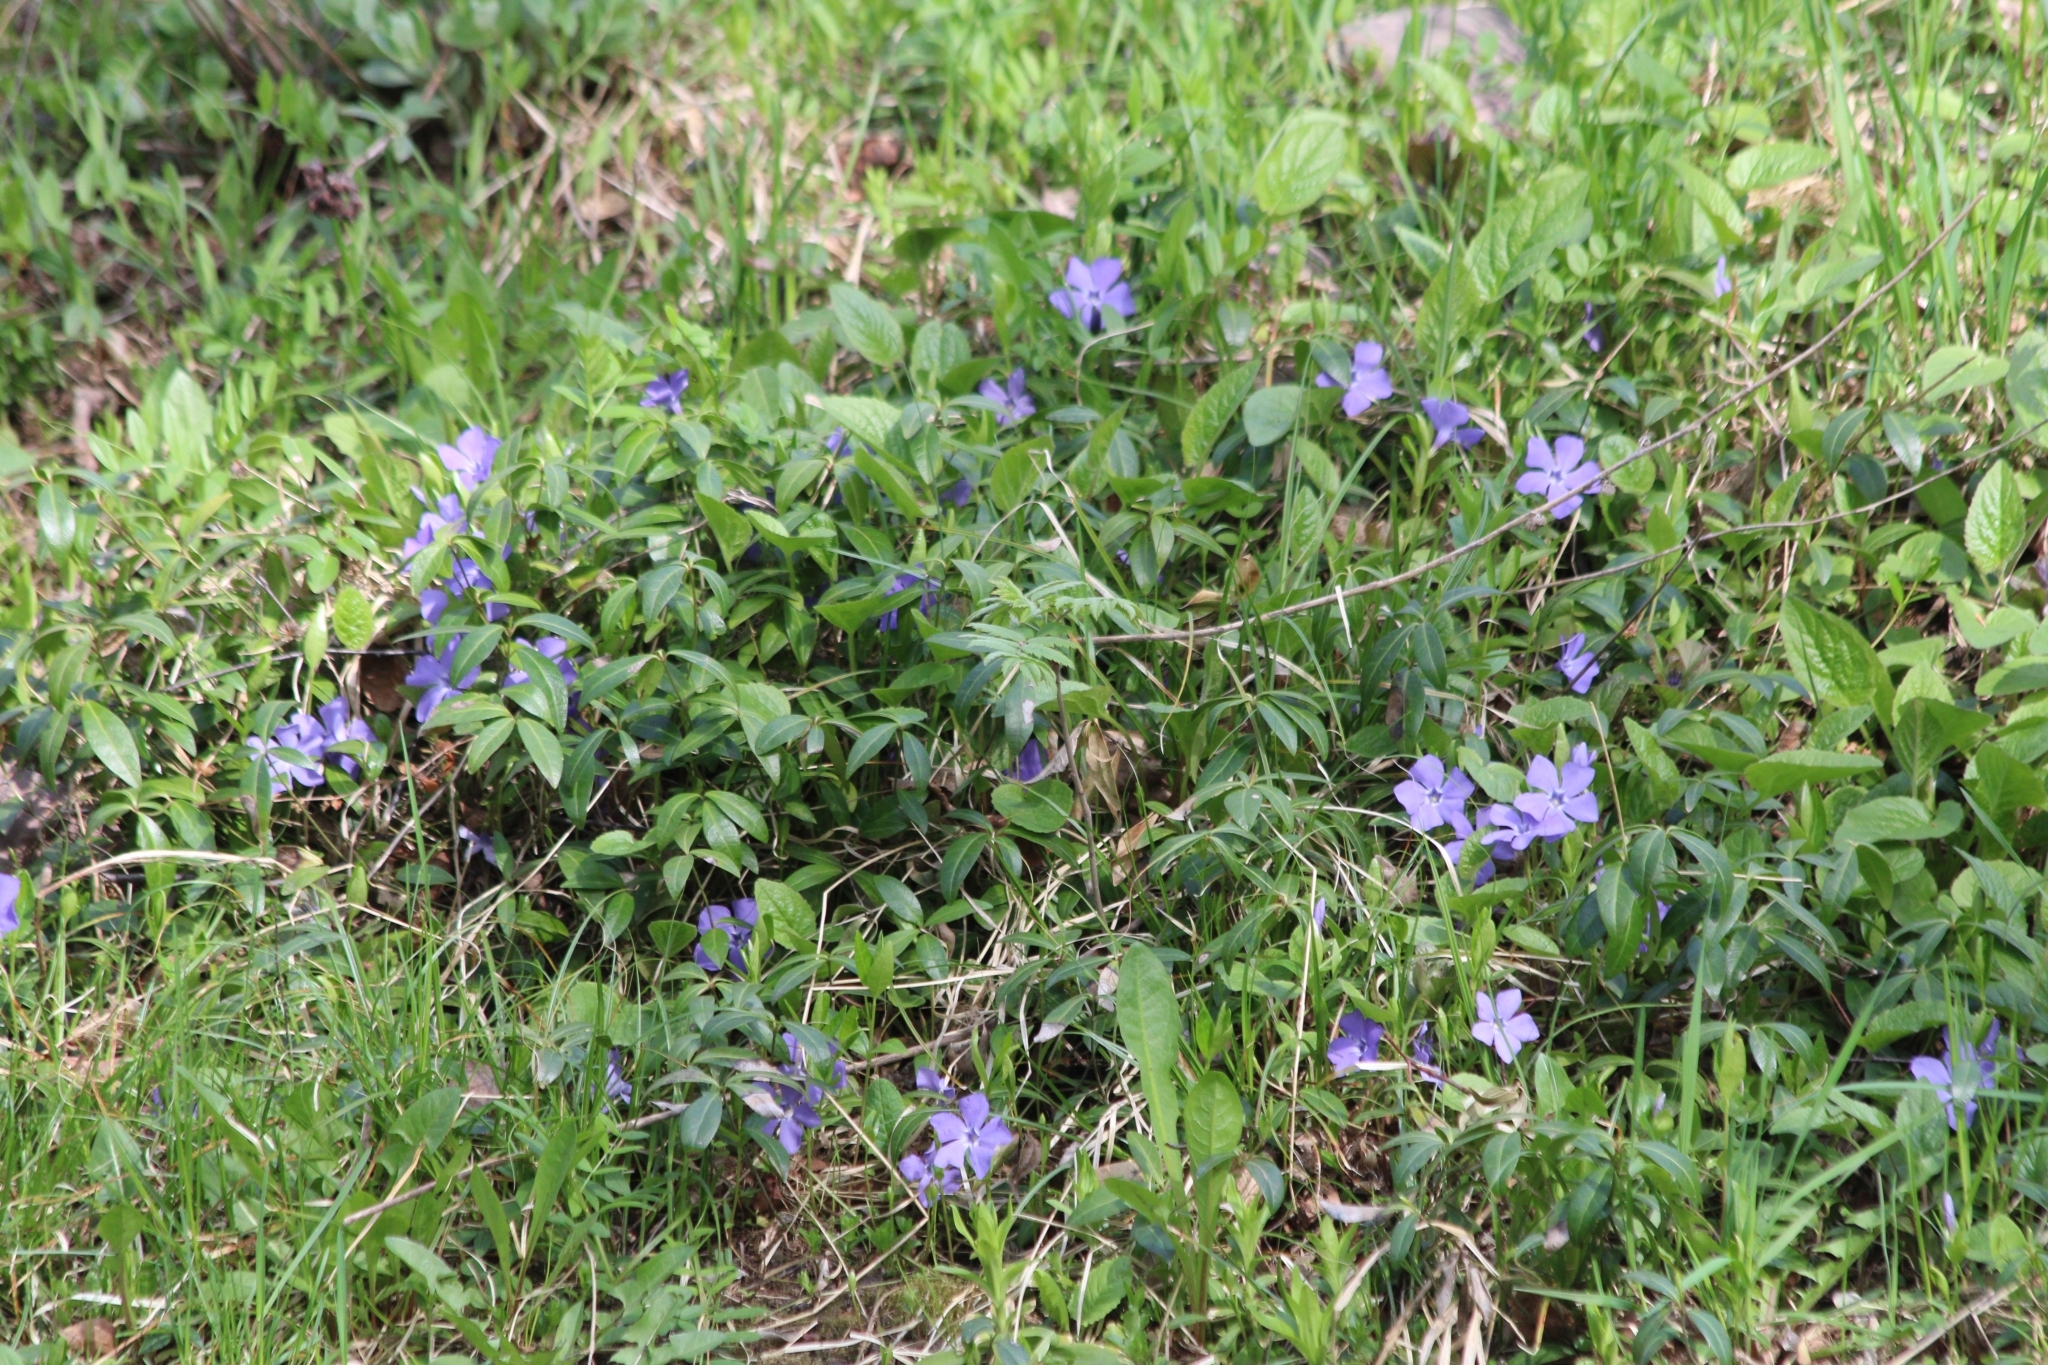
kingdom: Plantae
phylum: Tracheophyta
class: Magnoliopsida
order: Gentianales
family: Apocynaceae
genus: Vinca
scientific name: Vinca minor
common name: Lesser periwinkle
